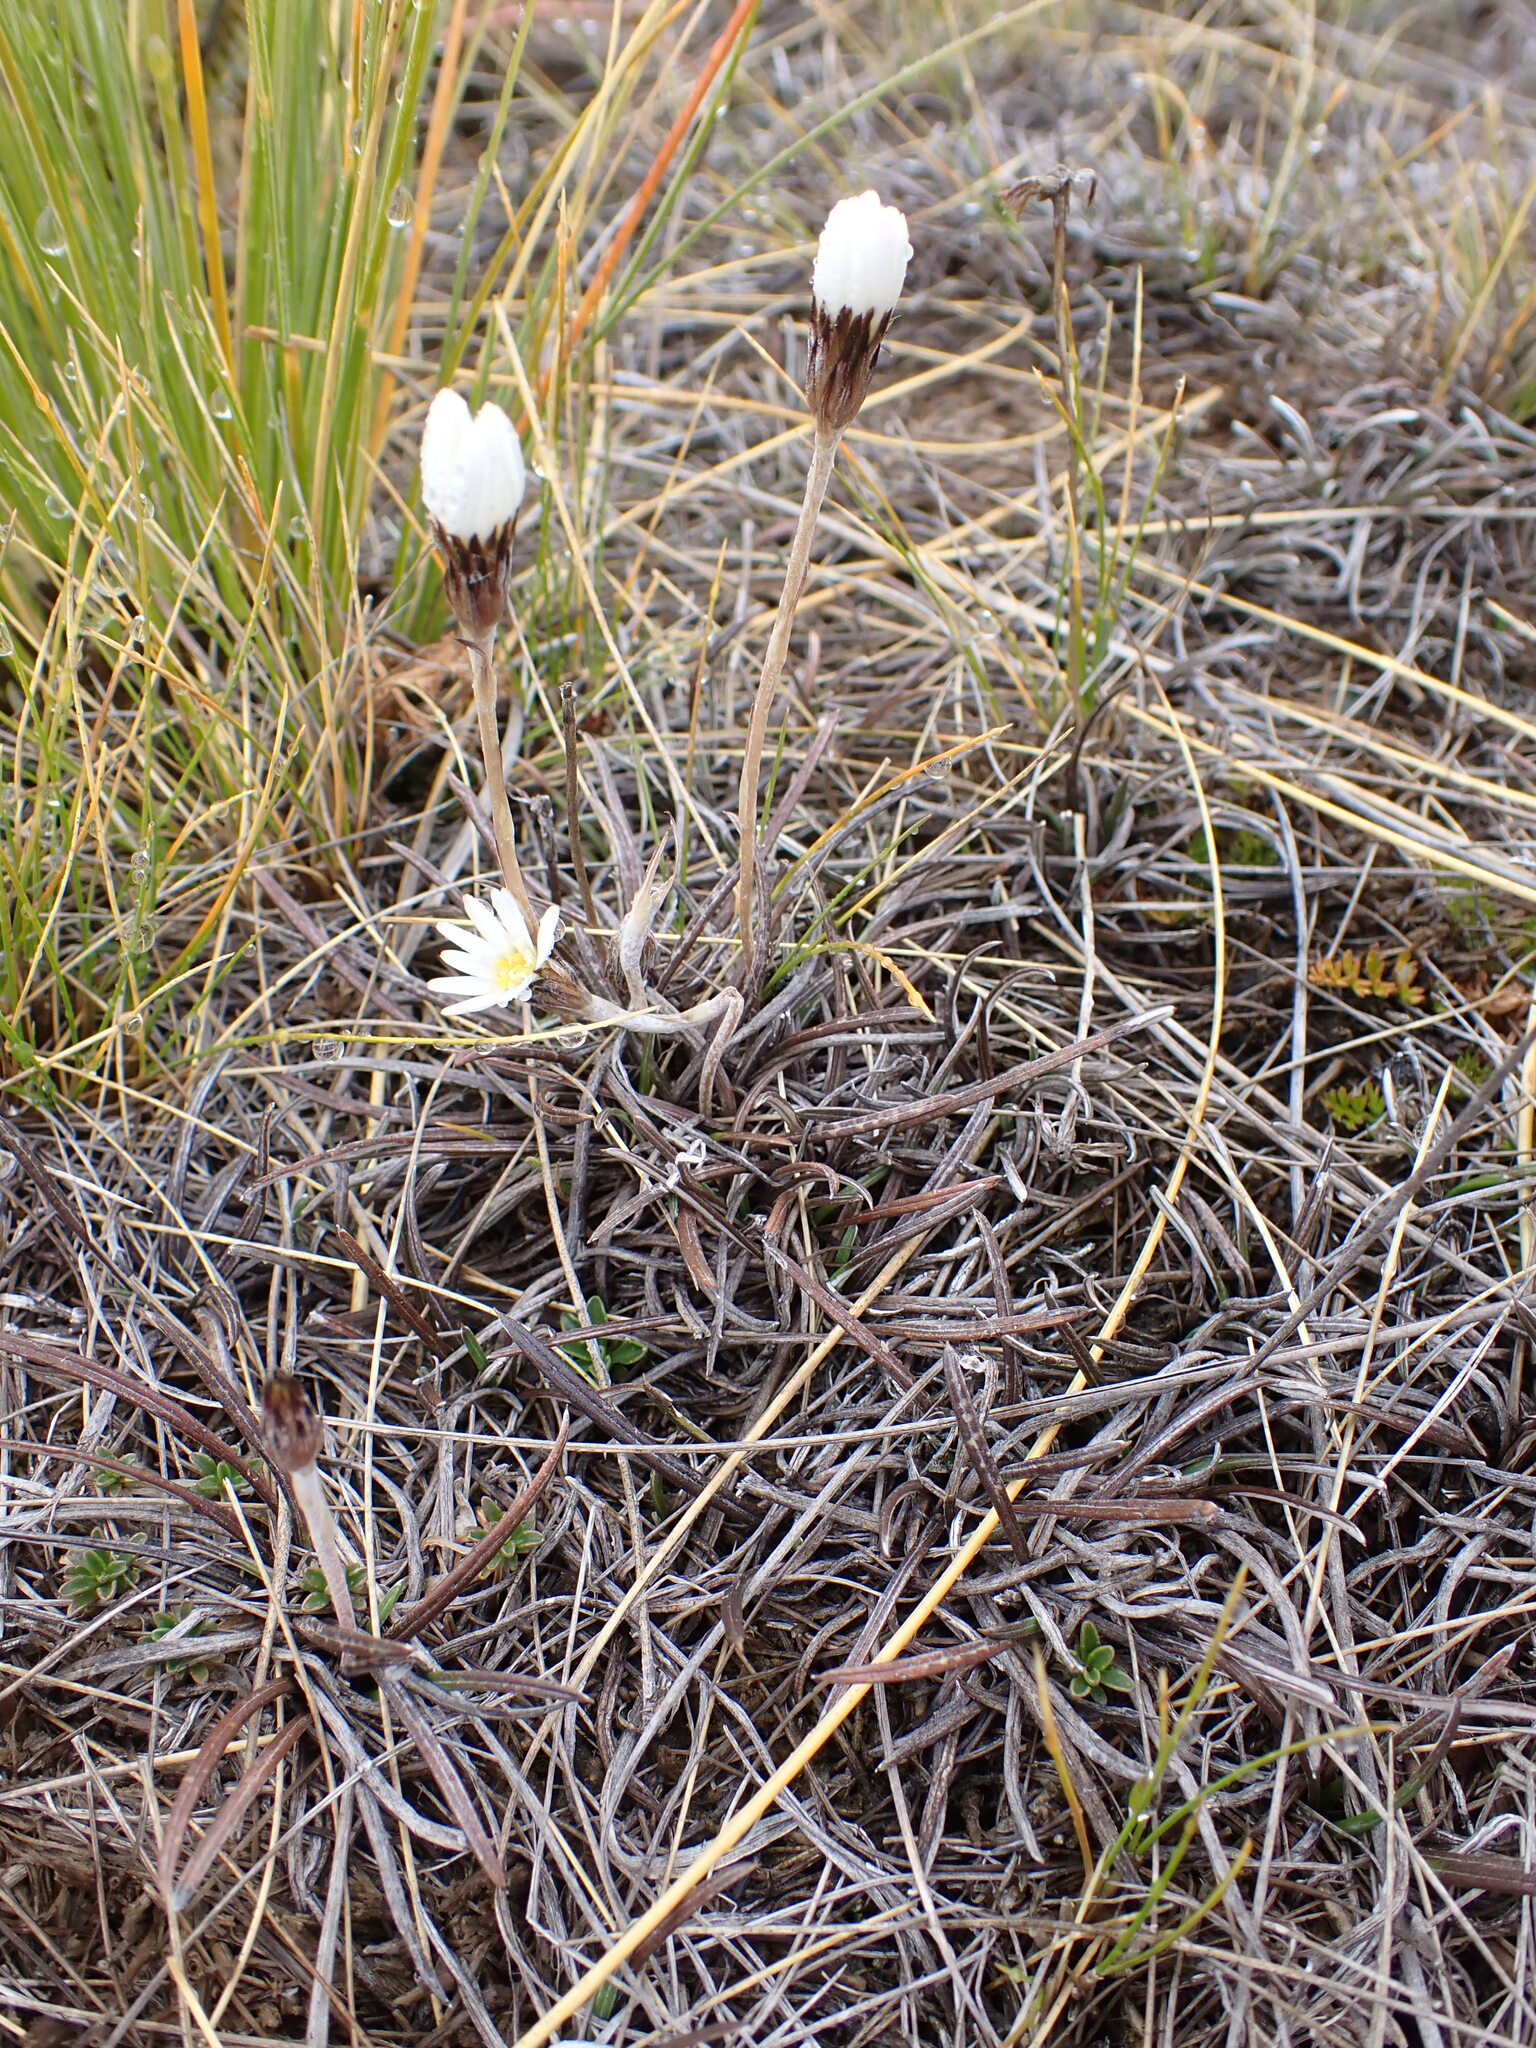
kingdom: Plantae
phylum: Tracheophyta
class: Magnoliopsida
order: Asterales
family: Asteraceae
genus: Celmisia
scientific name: Celmisia gracilenta
